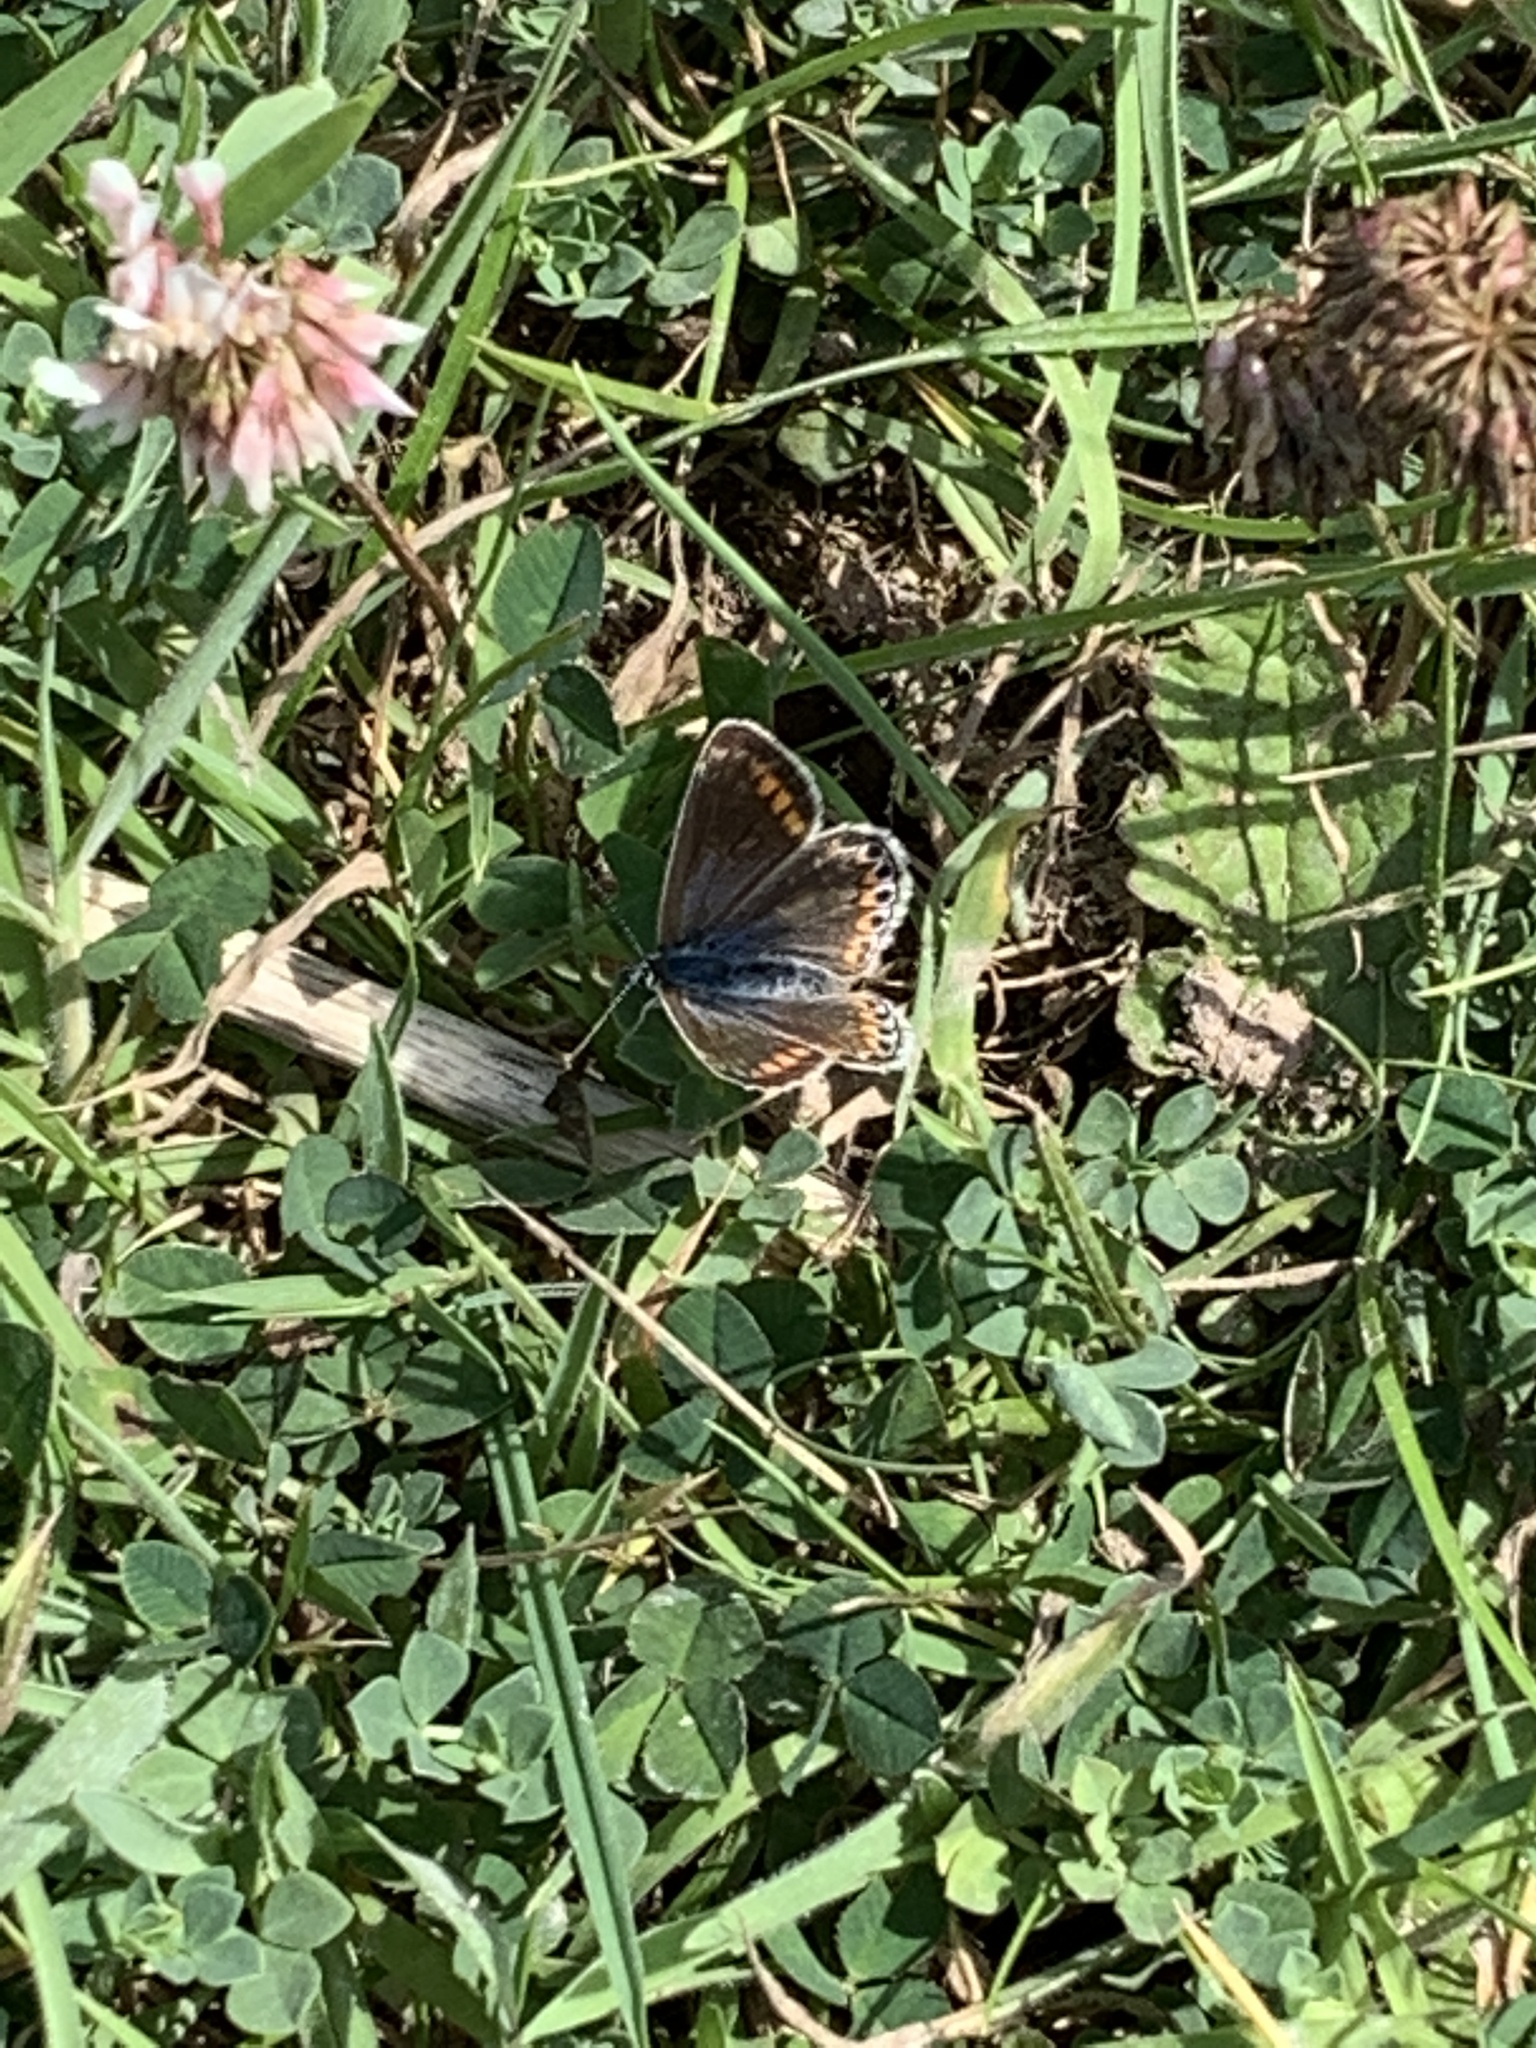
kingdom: Animalia
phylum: Arthropoda
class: Insecta
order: Lepidoptera
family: Lycaenidae
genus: Polyommatus
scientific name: Polyommatus icarus
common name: Common blue
